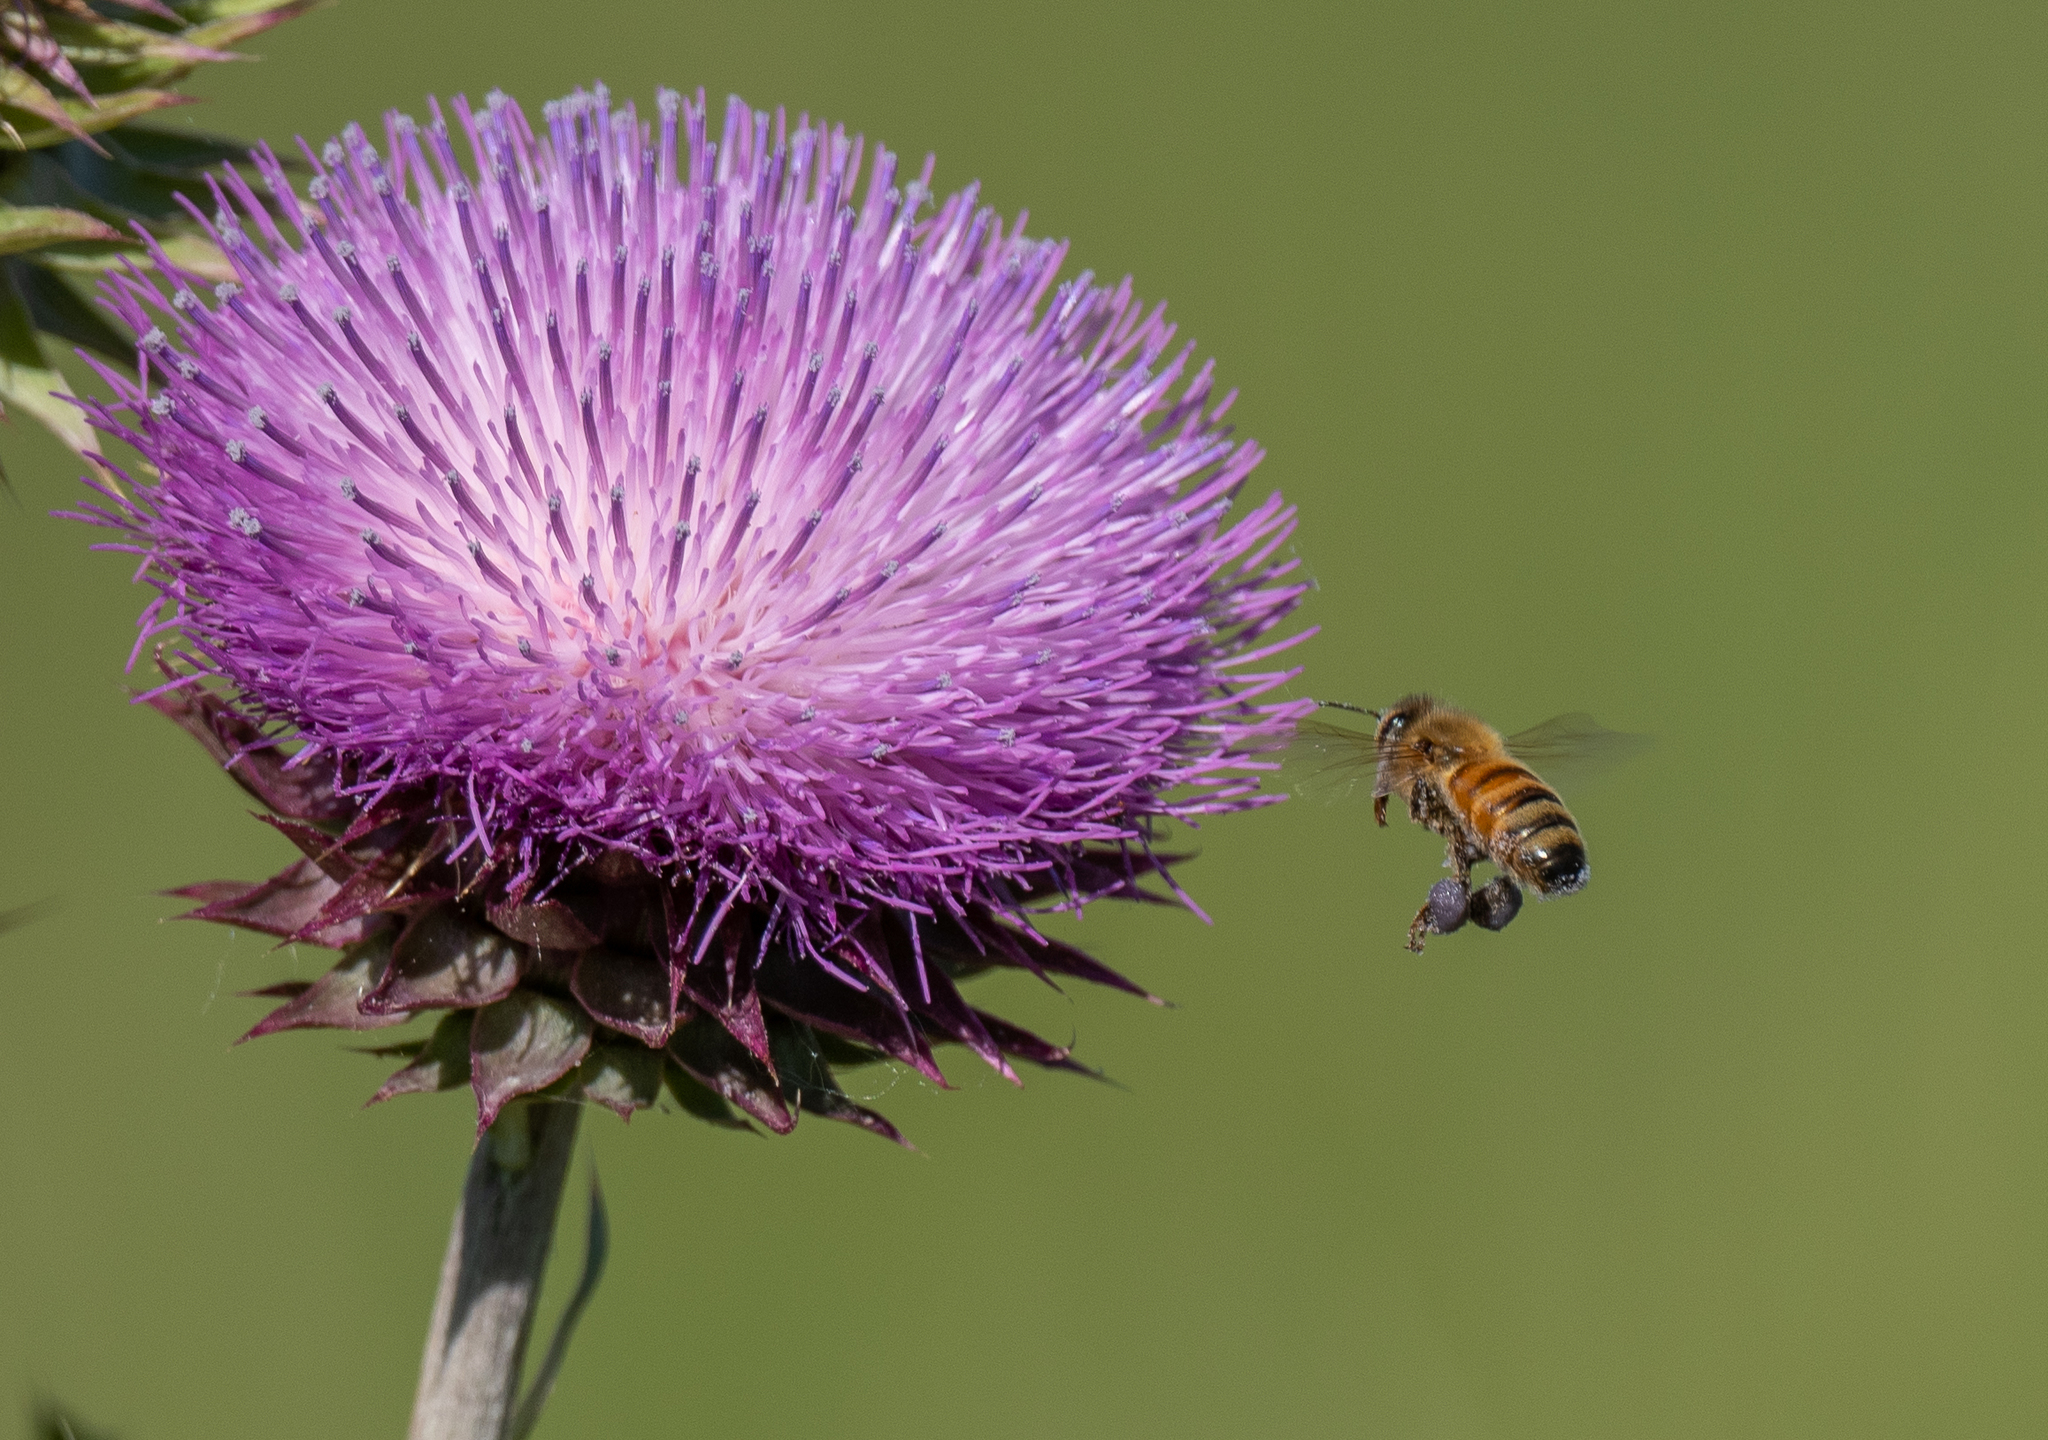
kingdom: Animalia
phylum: Arthropoda
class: Insecta
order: Hymenoptera
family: Apidae
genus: Apis
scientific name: Apis mellifera
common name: Honey bee
